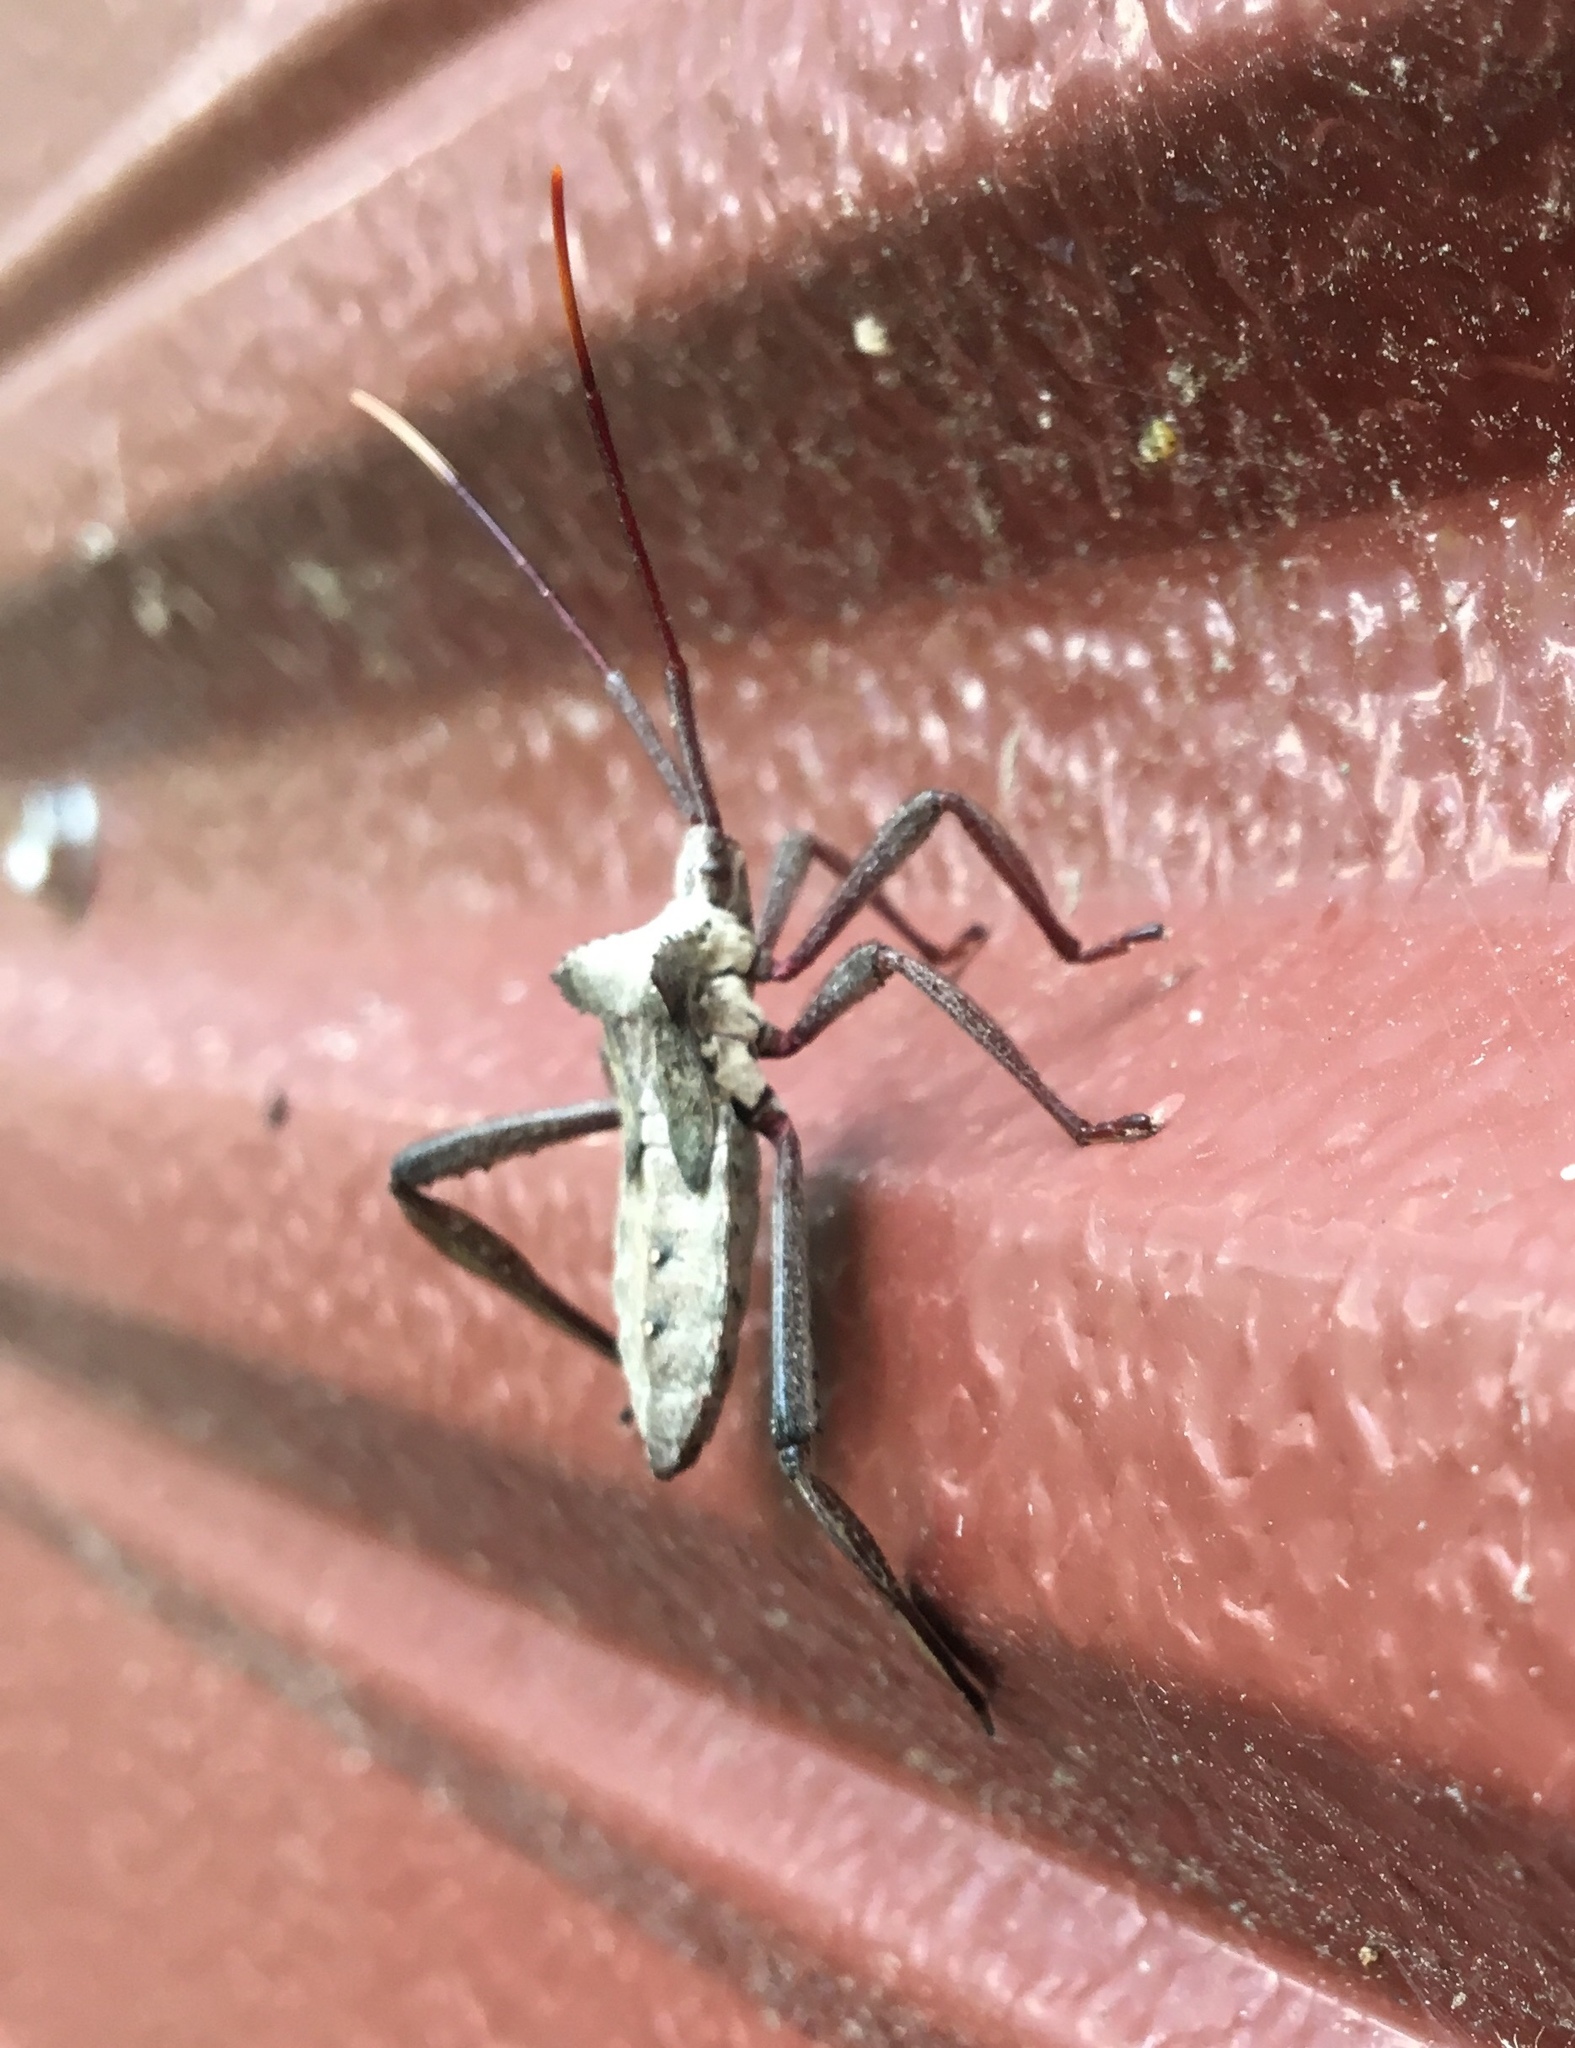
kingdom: Animalia
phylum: Arthropoda
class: Insecta
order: Hemiptera
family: Coreidae
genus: Acanthocephala
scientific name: Acanthocephala declivis
